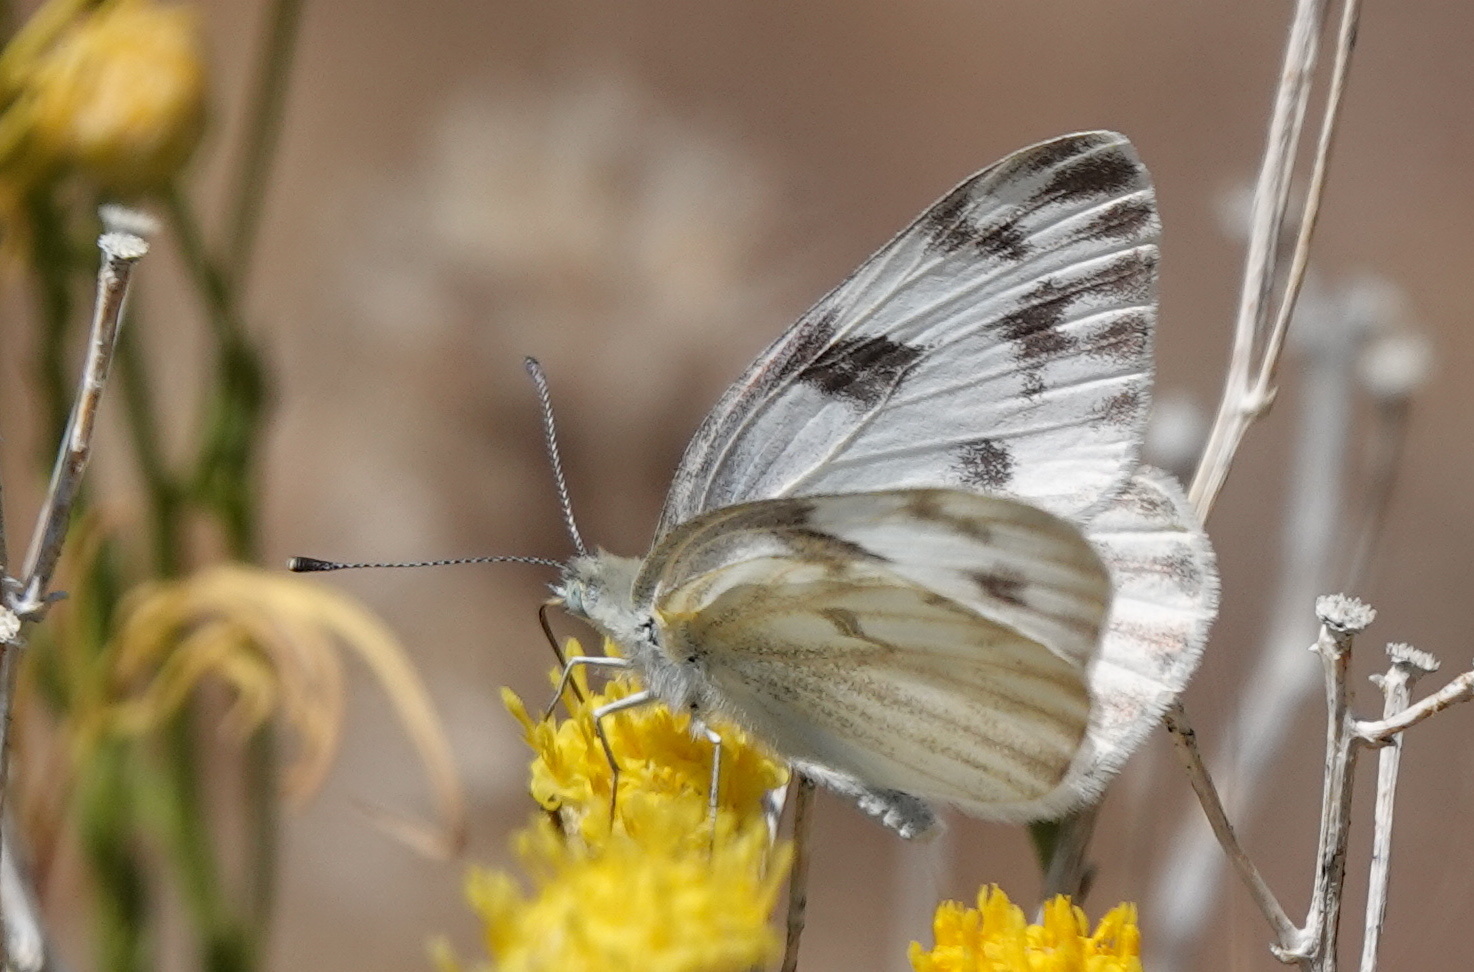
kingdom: Animalia
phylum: Arthropoda
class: Insecta
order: Lepidoptera
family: Pieridae
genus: Pontia
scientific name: Pontia protodice
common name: Checkered white
